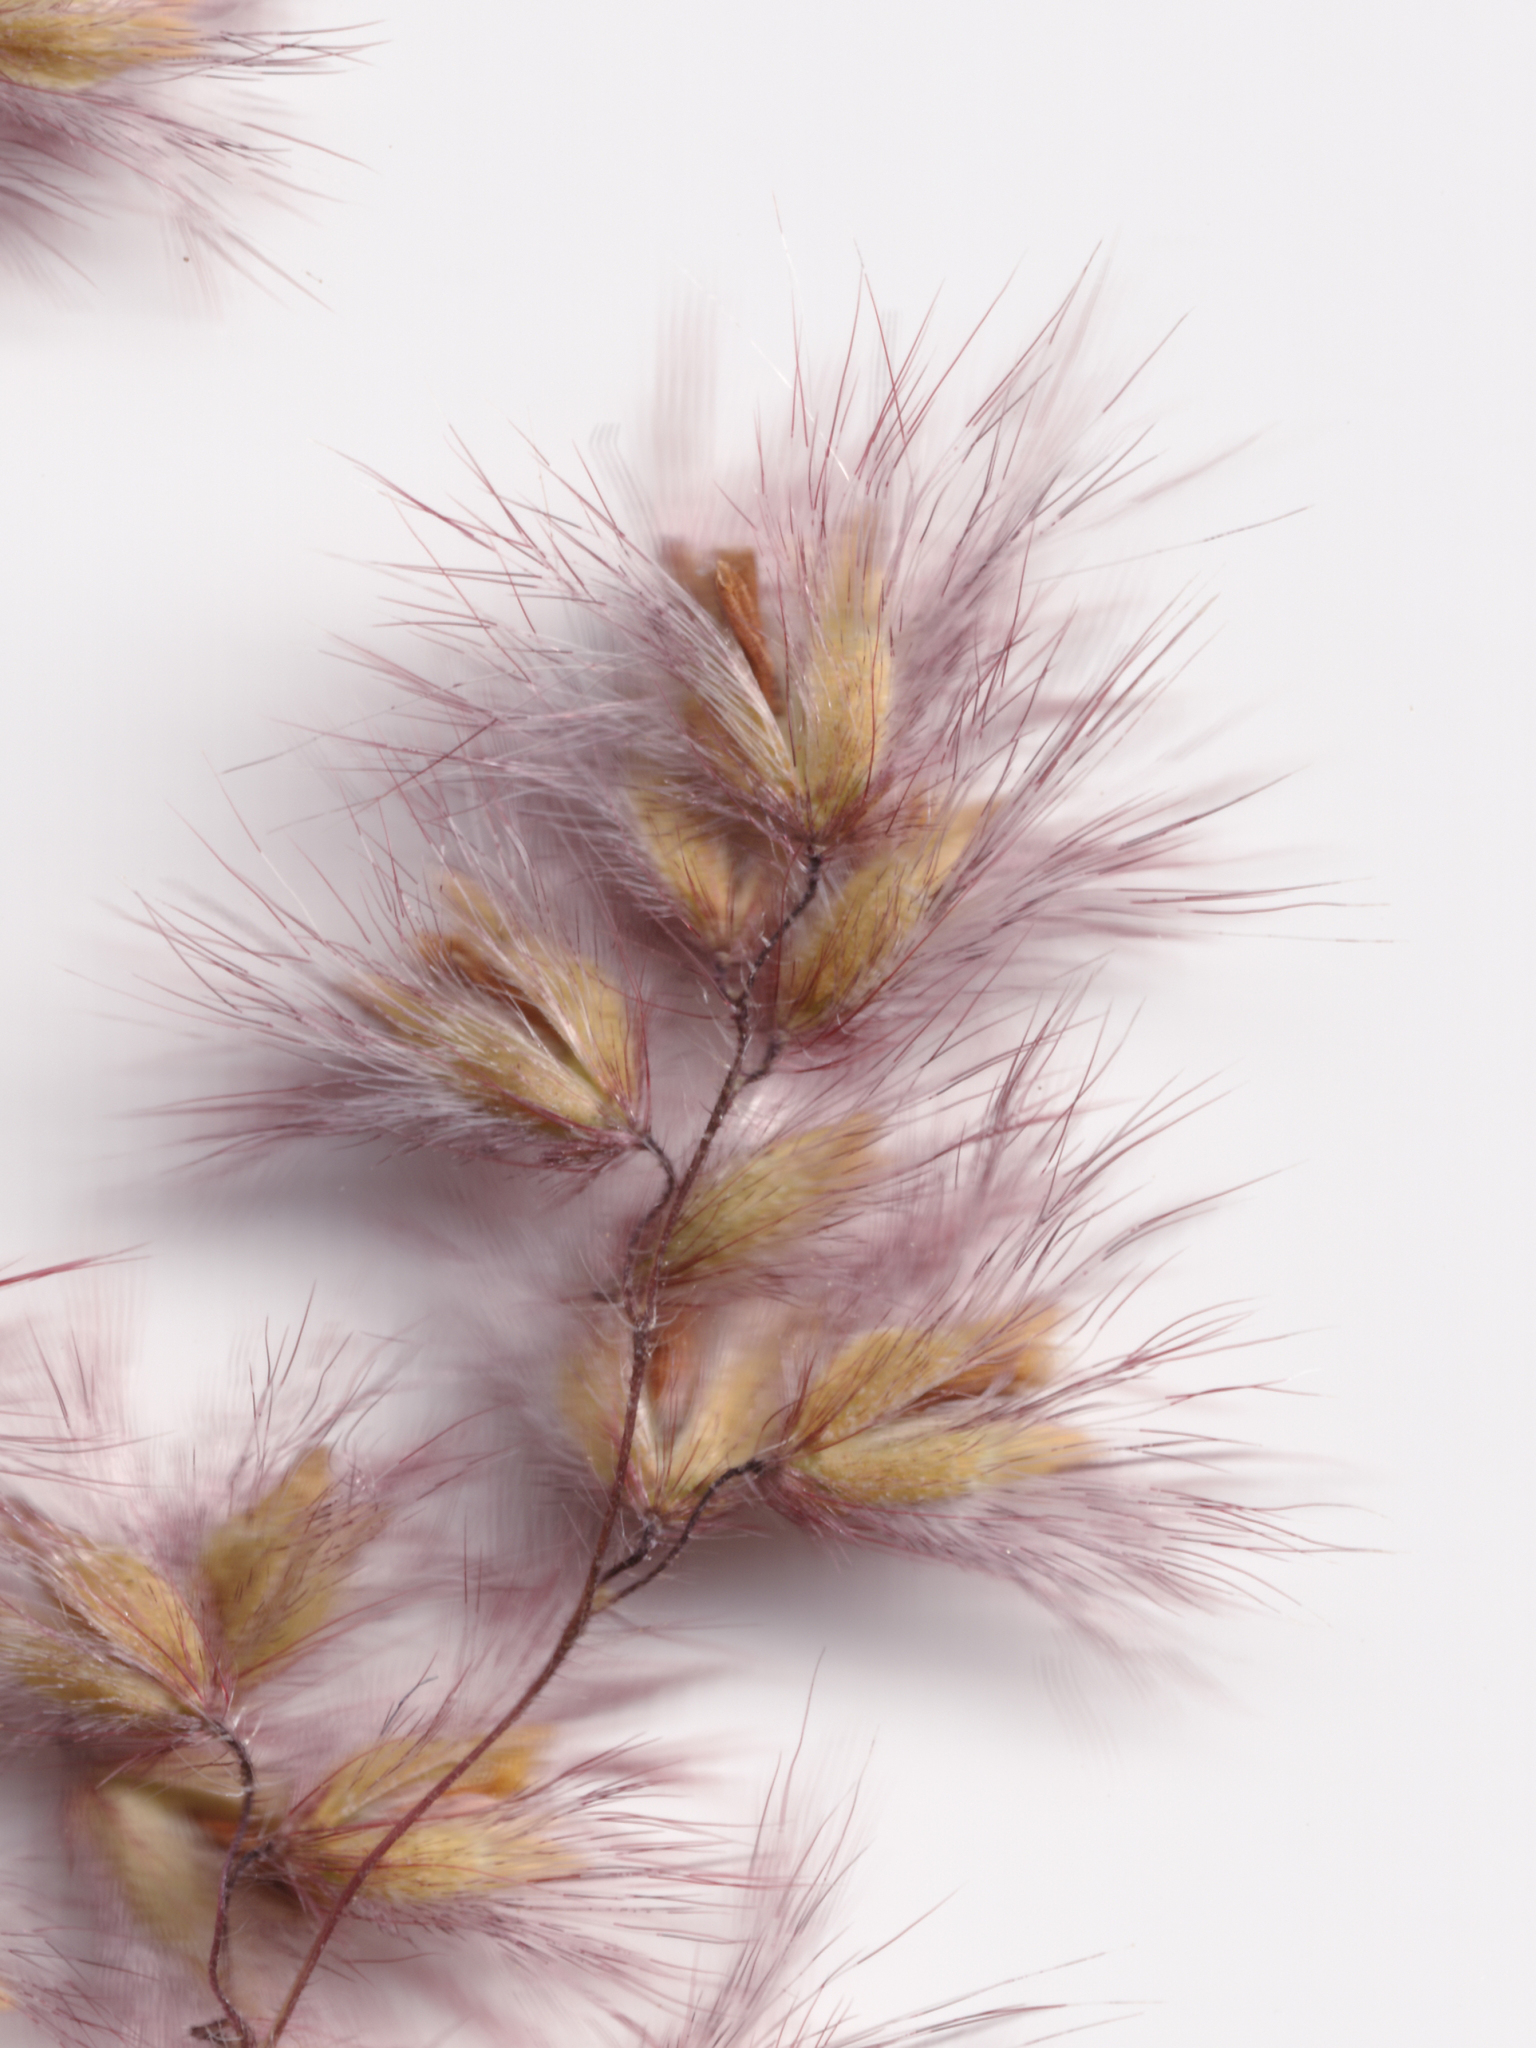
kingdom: Plantae
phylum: Tracheophyta
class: Liliopsida
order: Poales
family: Poaceae
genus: Melinis
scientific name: Melinis repens
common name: Rose natal grass
